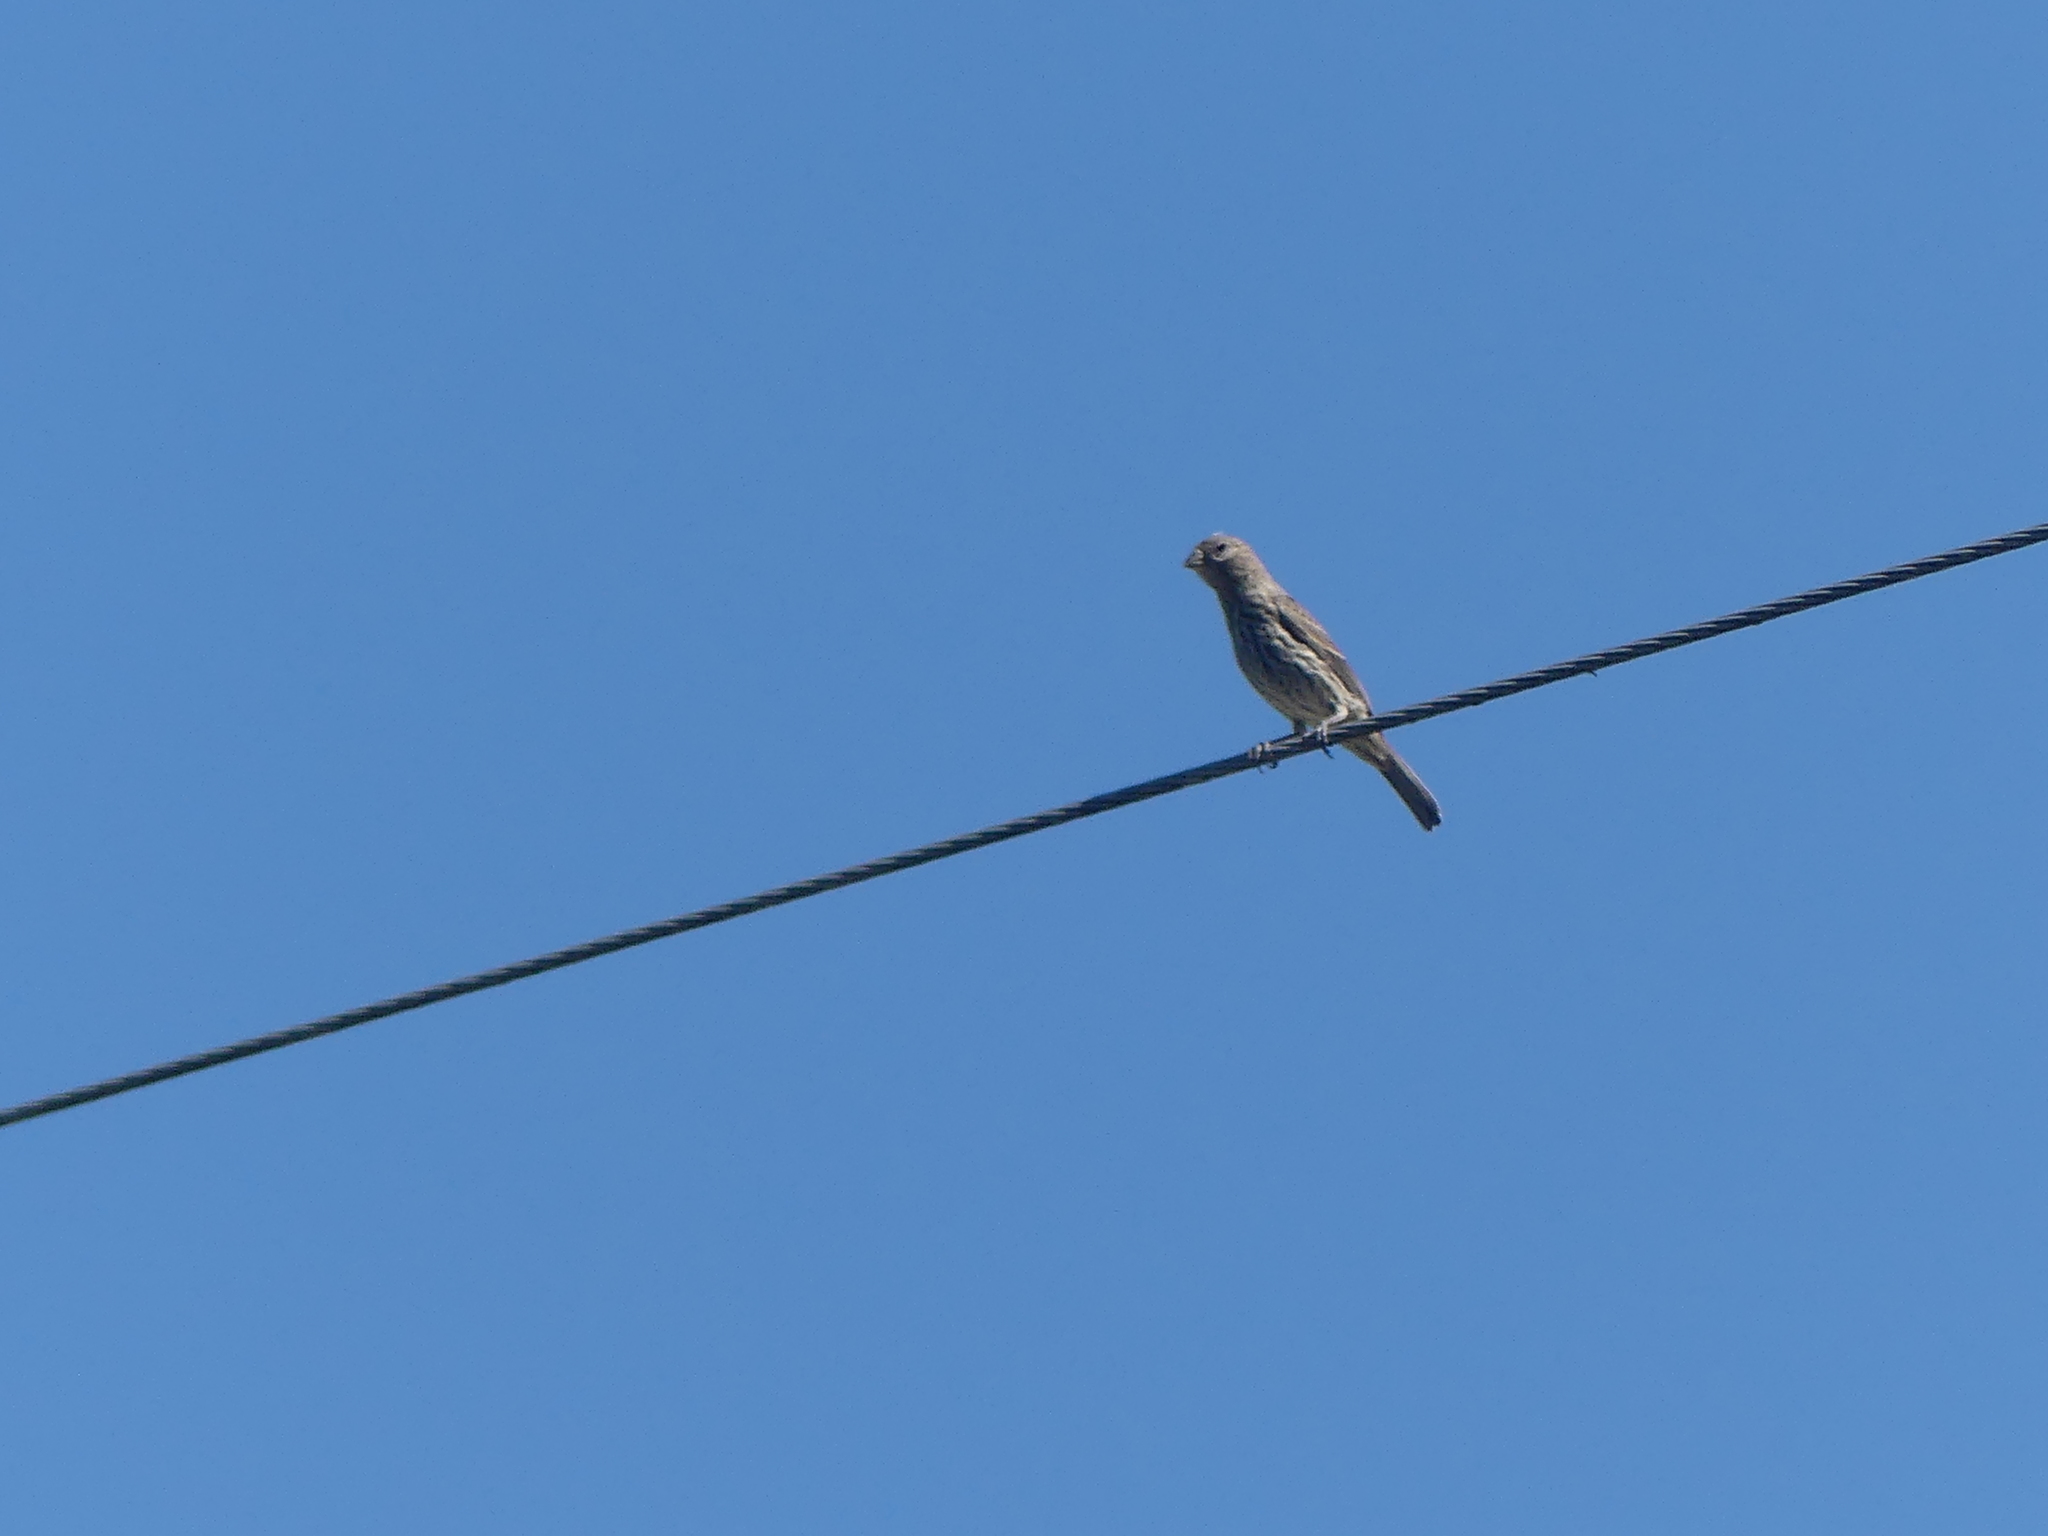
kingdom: Animalia
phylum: Chordata
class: Aves
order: Passeriformes
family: Fringillidae
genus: Haemorhous
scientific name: Haemorhous mexicanus
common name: House finch
